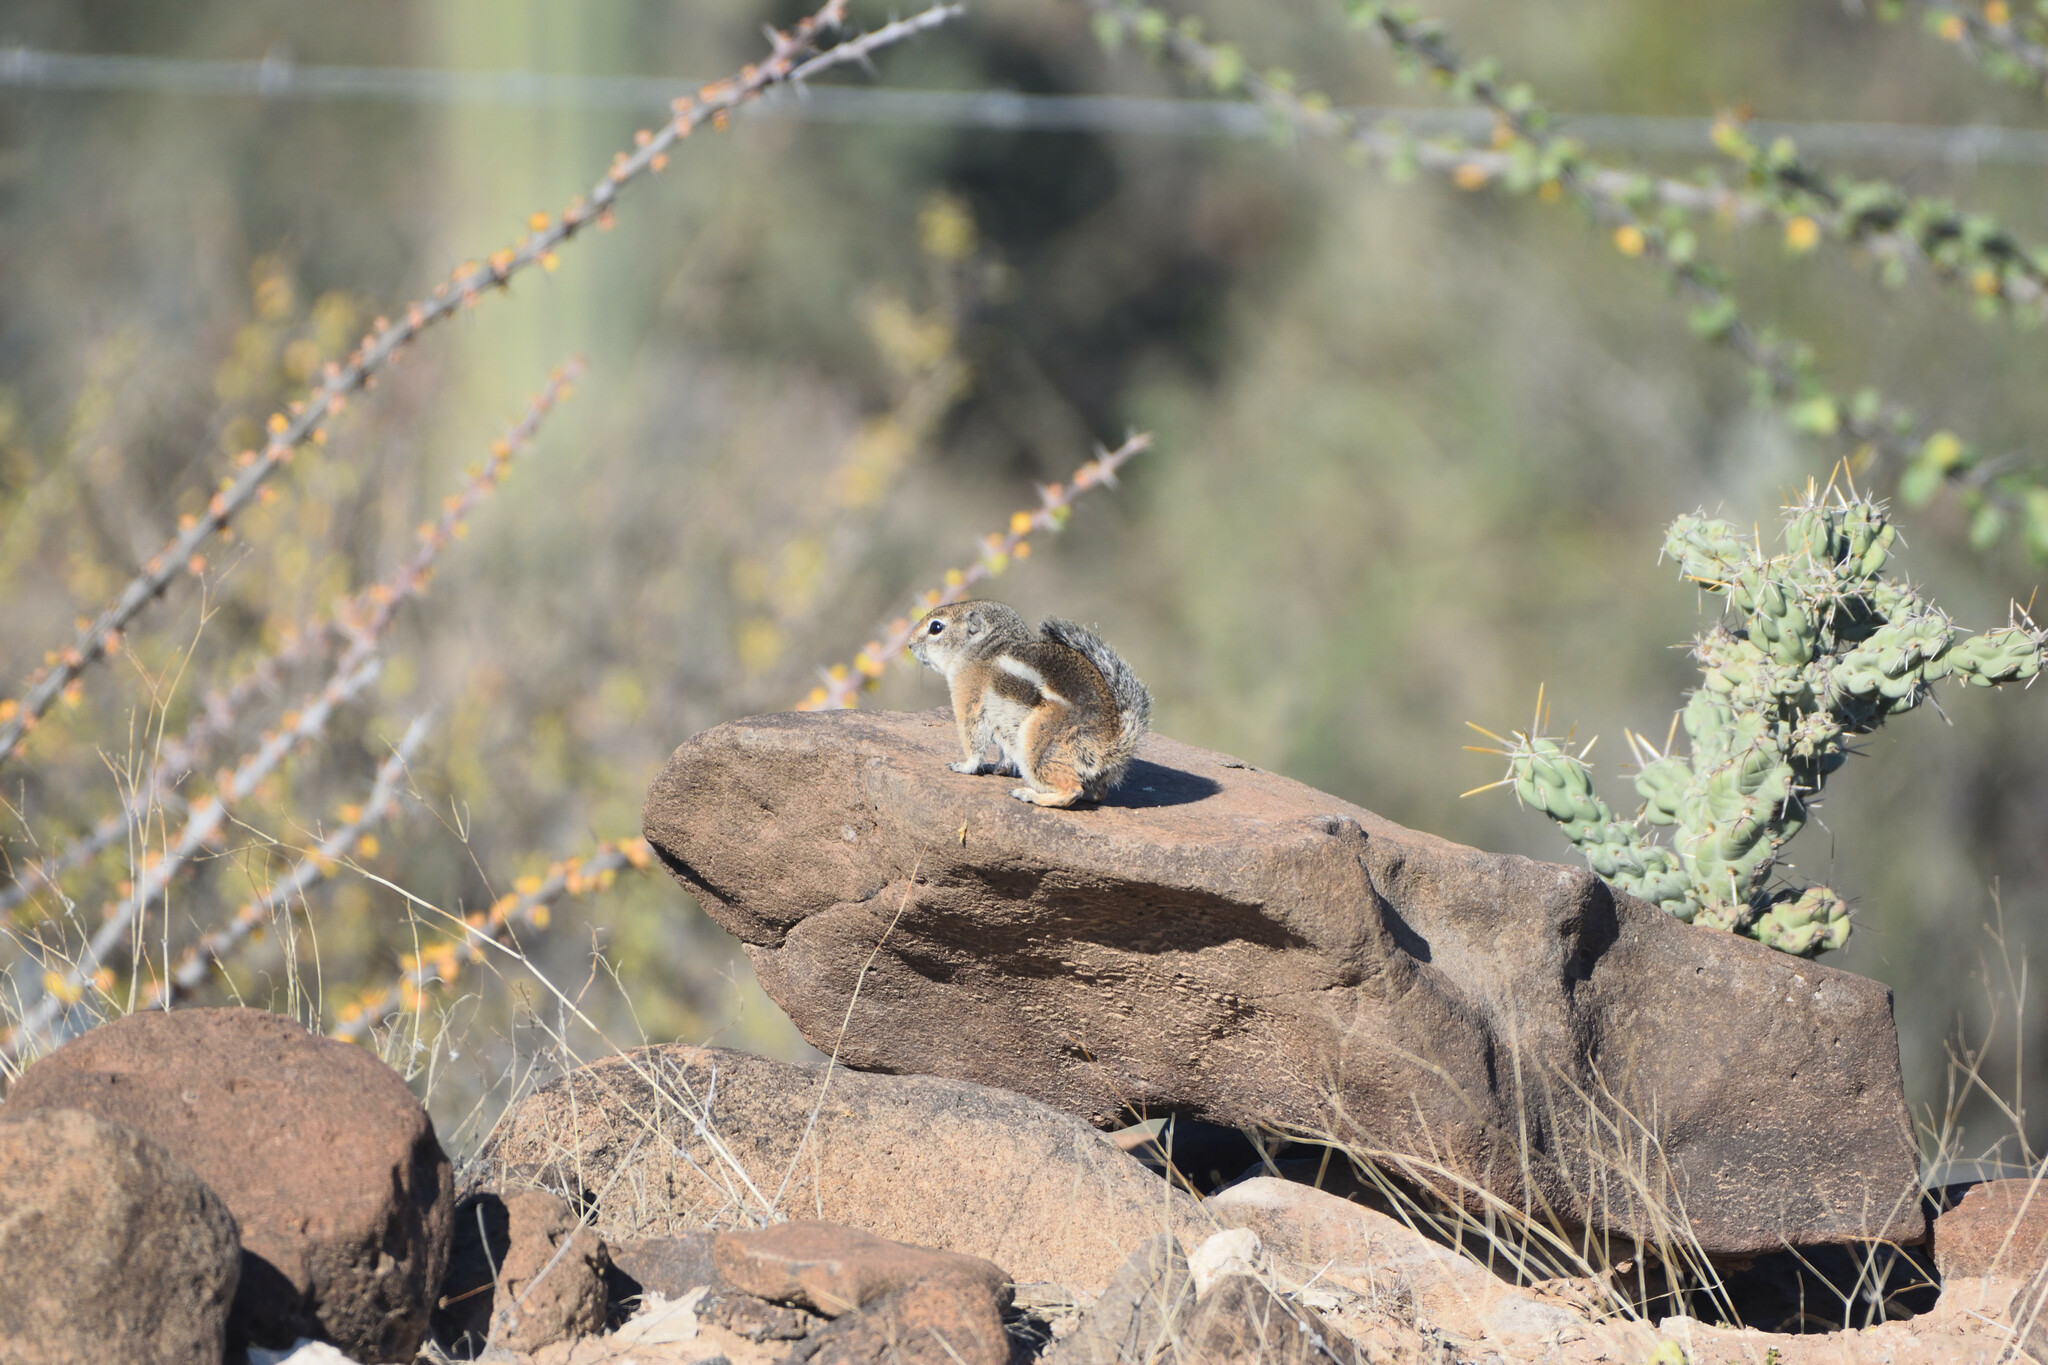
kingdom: Animalia
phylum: Chordata
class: Mammalia
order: Rodentia
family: Sciuridae
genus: Ammospermophilus
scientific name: Ammospermophilus leucurus
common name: White-tailed antelope squirrel
